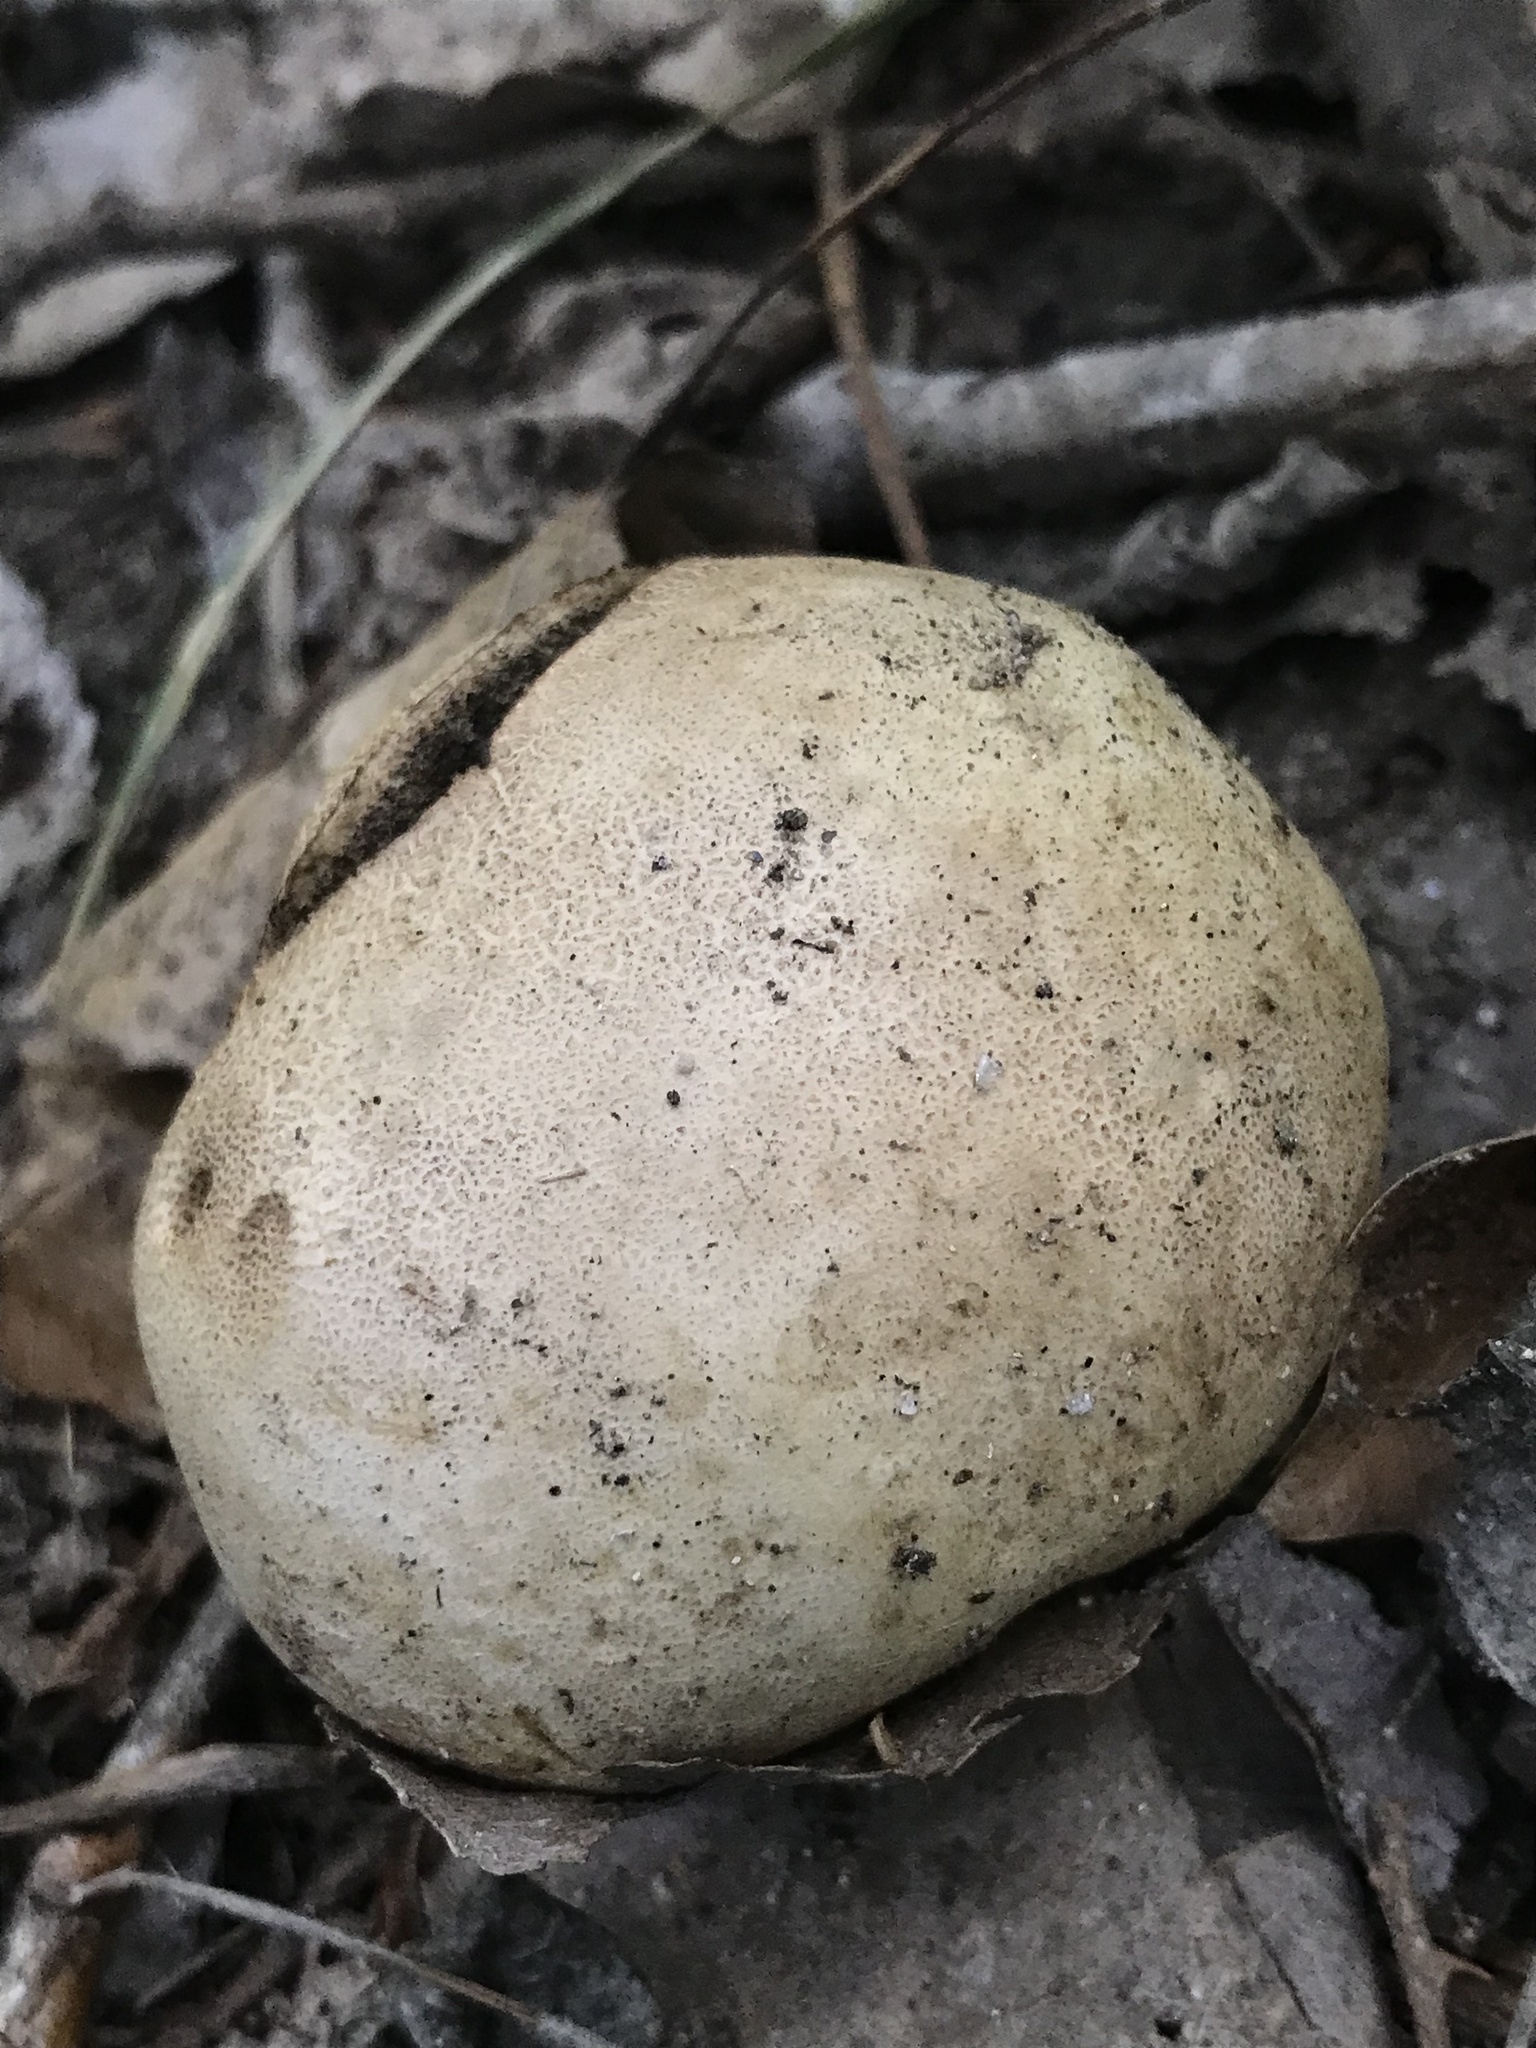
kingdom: Fungi
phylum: Basidiomycota
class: Agaricomycetes
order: Boletales
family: Sclerodermataceae
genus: Scleroderma
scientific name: Scleroderma bovista
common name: Potato earthball
